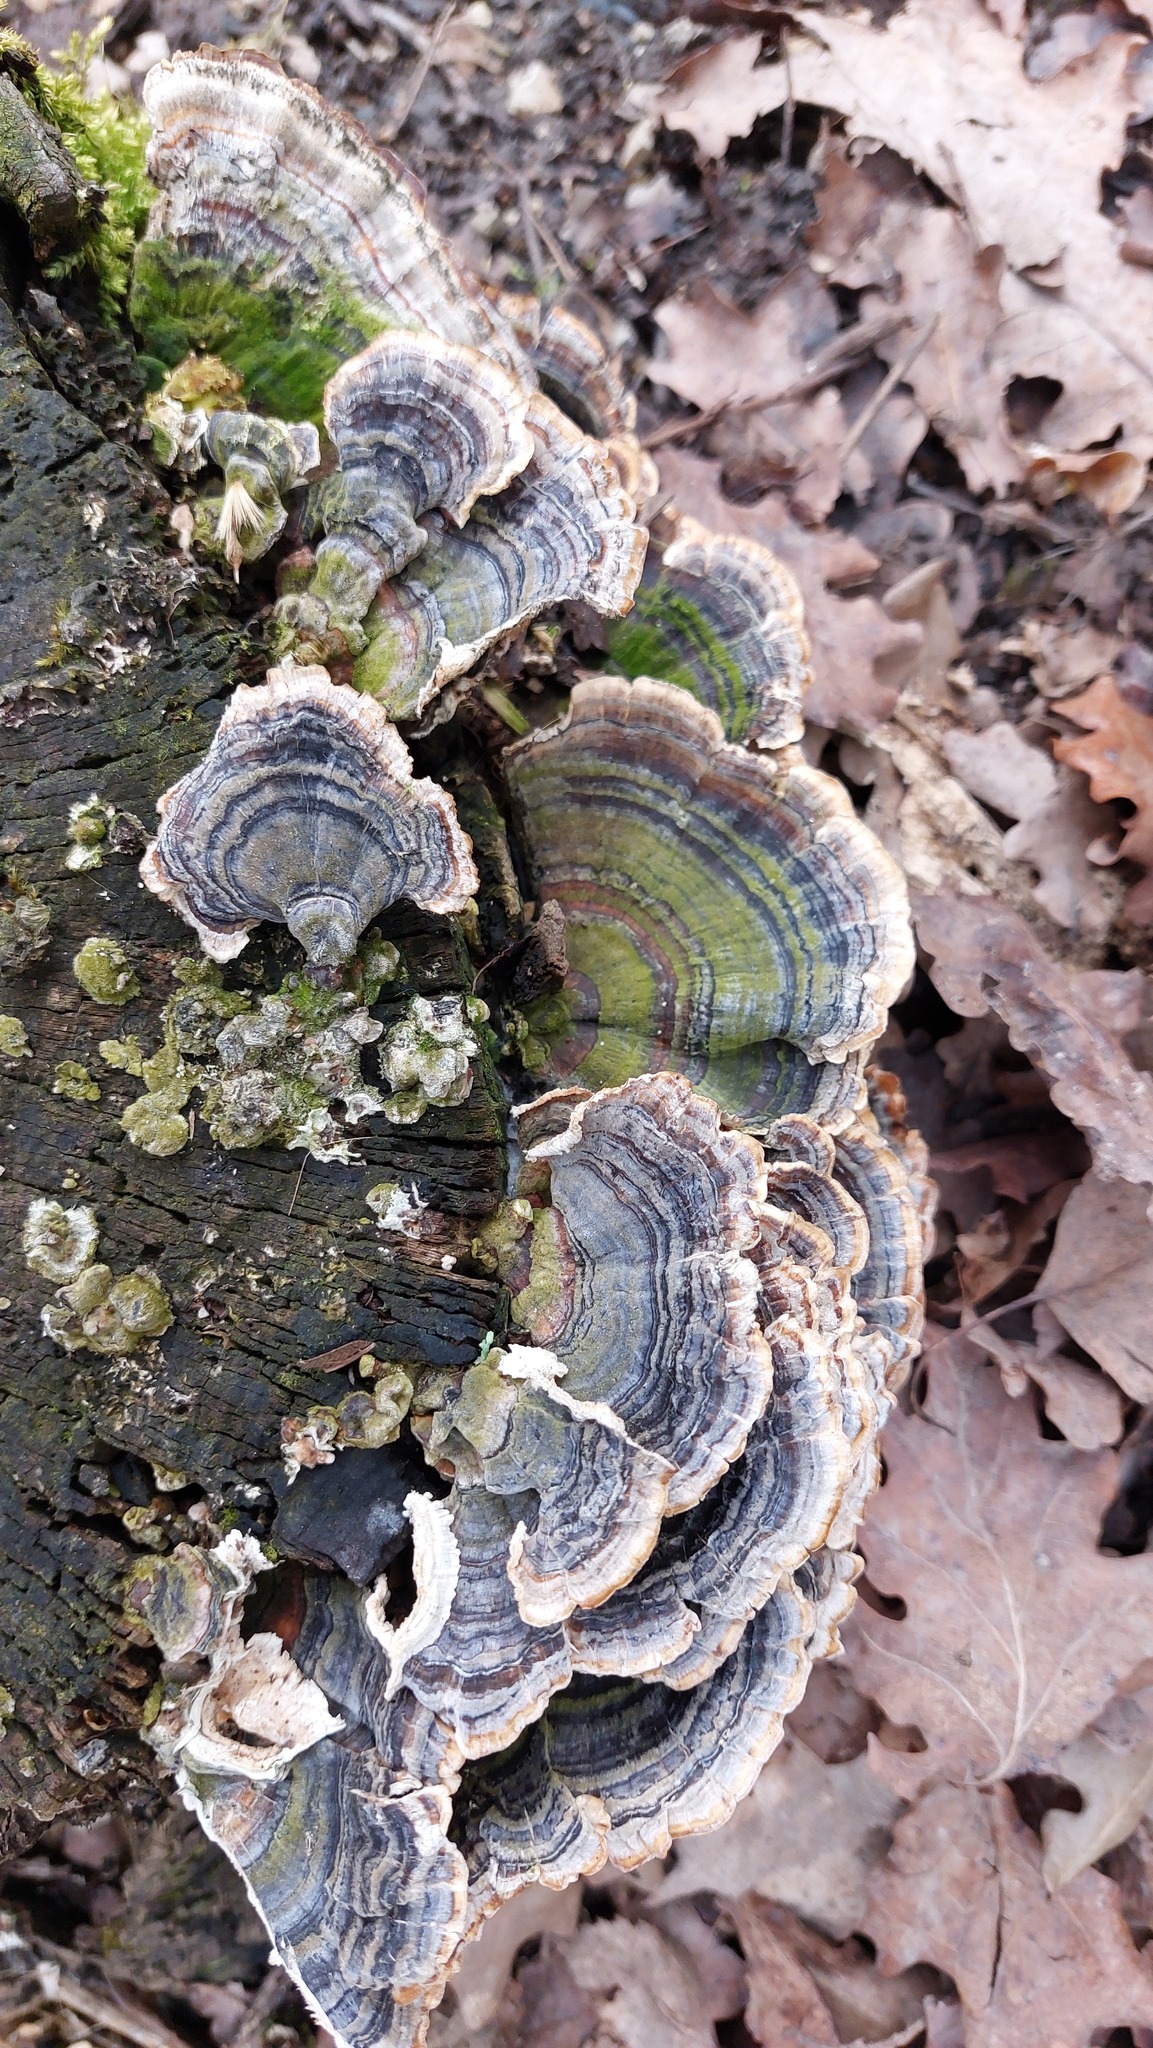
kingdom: Fungi
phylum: Basidiomycota
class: Agaricomycetes
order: Polyporales
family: Polyporaceae
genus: Trametes
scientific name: Trametes versicolor
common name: Turkeytail
